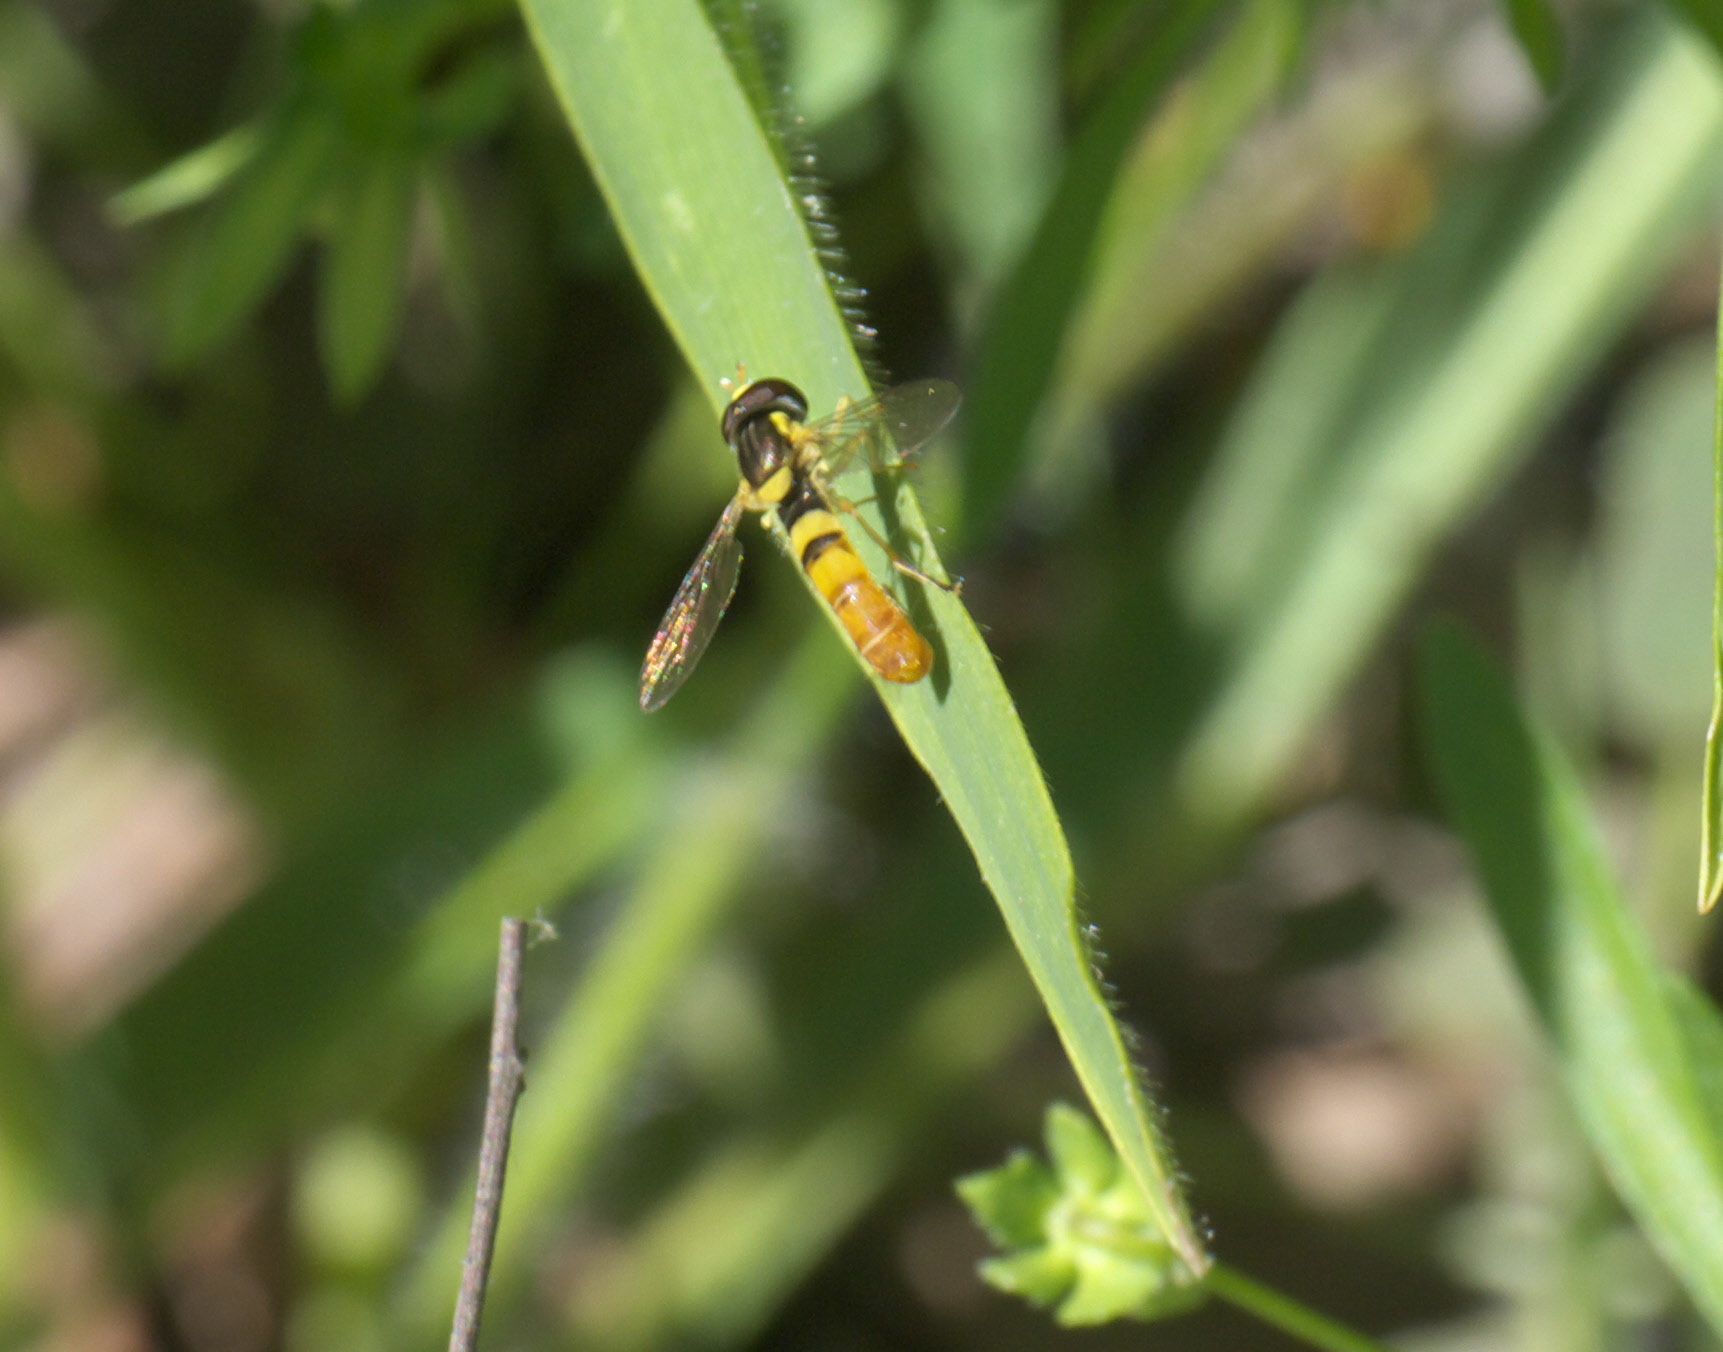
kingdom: Animalia
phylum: Arthropoda
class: Insecta
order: Diptera
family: Syrphidae
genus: Sphaerophoria
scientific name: Sphaerophoria contigua
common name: Tufted globetail
